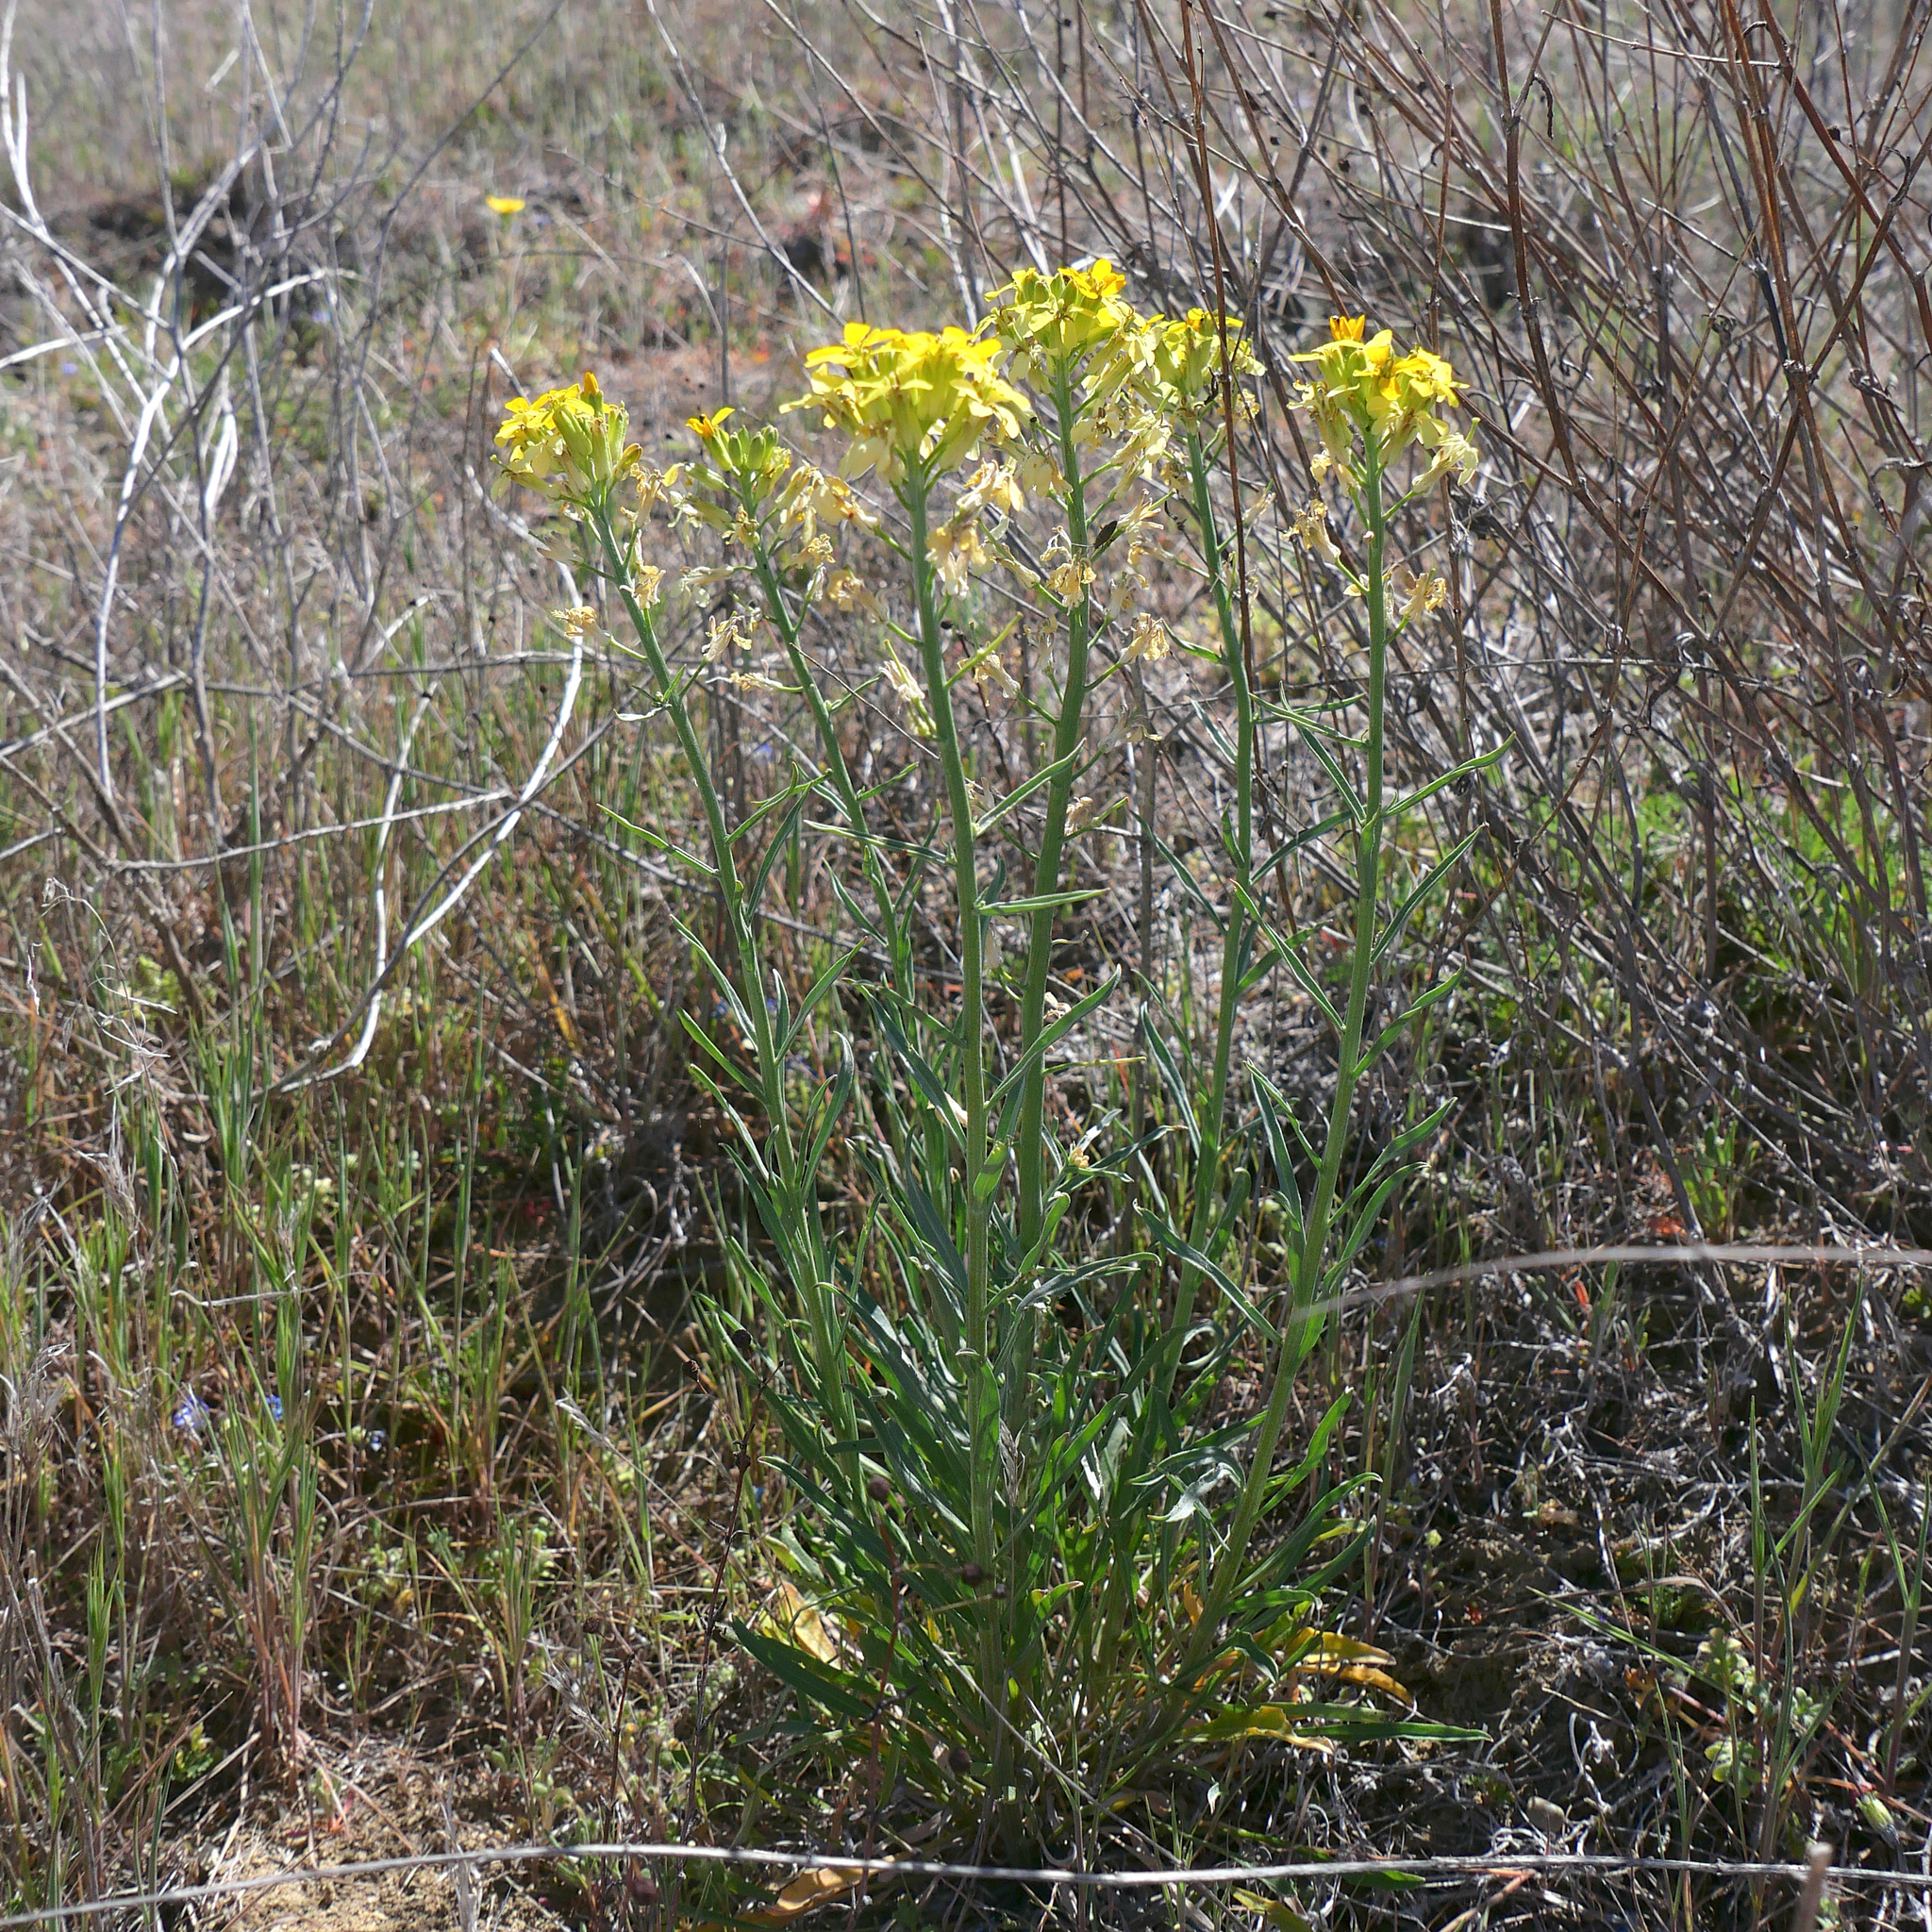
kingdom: Plantae
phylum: Tracheophyta
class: Magnoliopsida
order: Brassicales
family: Brassicaceae
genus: Erysimum
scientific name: Erysimum capitatum
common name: Western wallflower
